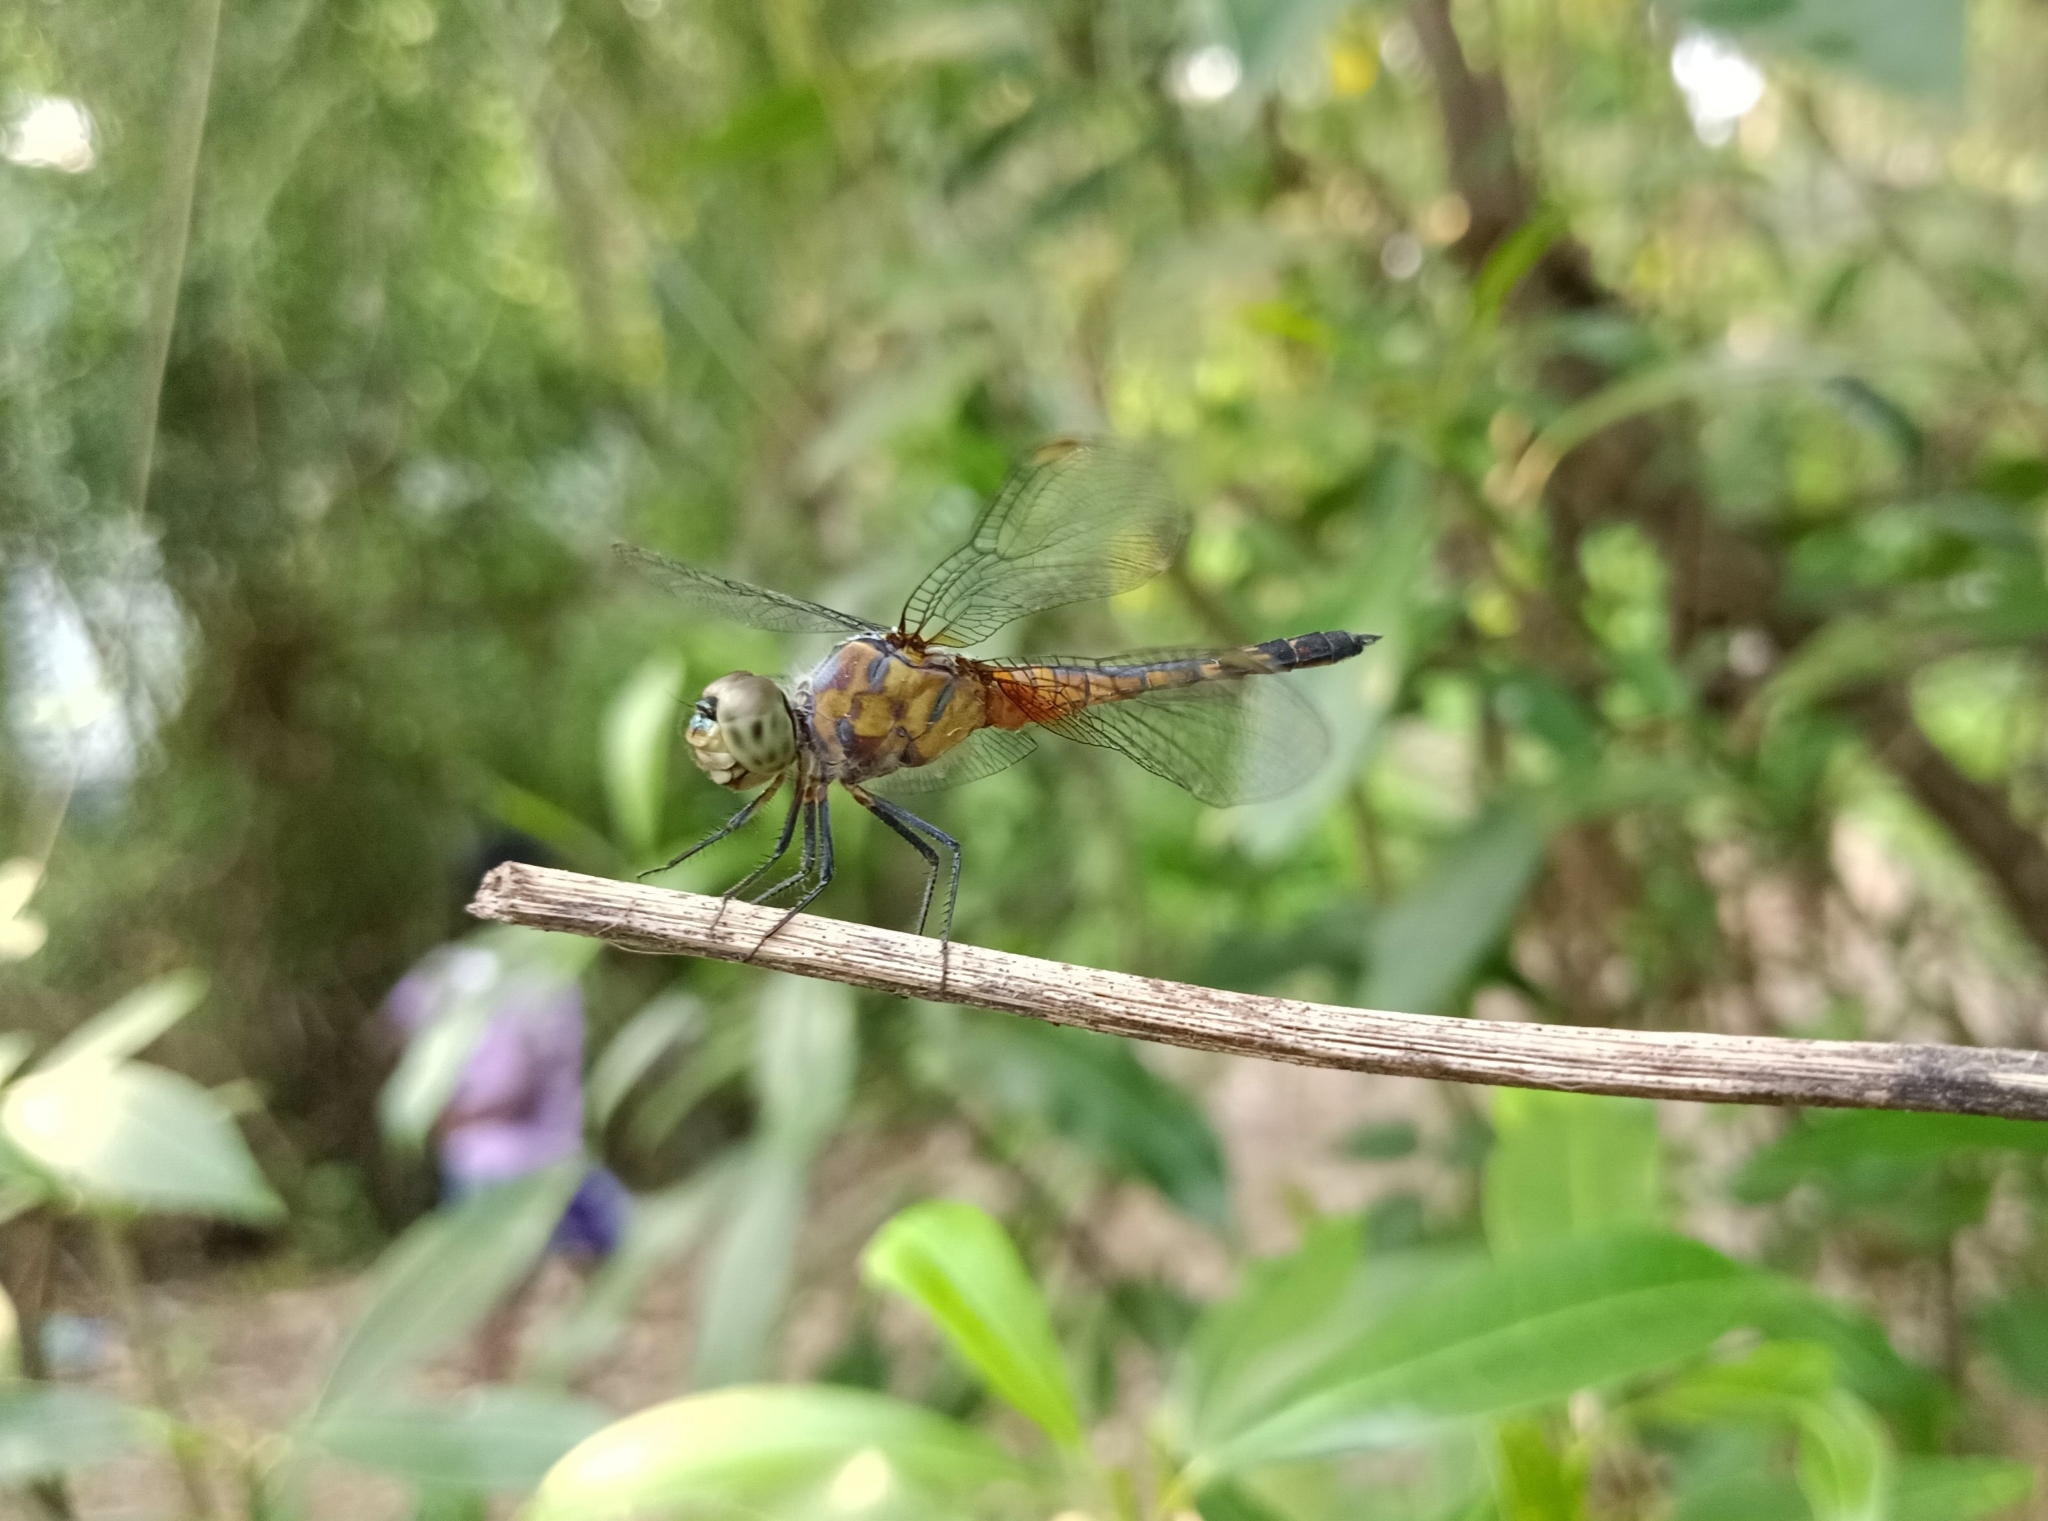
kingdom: Animalia
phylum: Arthropoda
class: Insecta
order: Odonata
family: Libellulidae
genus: Brachydiplax
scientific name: Brachydiplax chalybea
